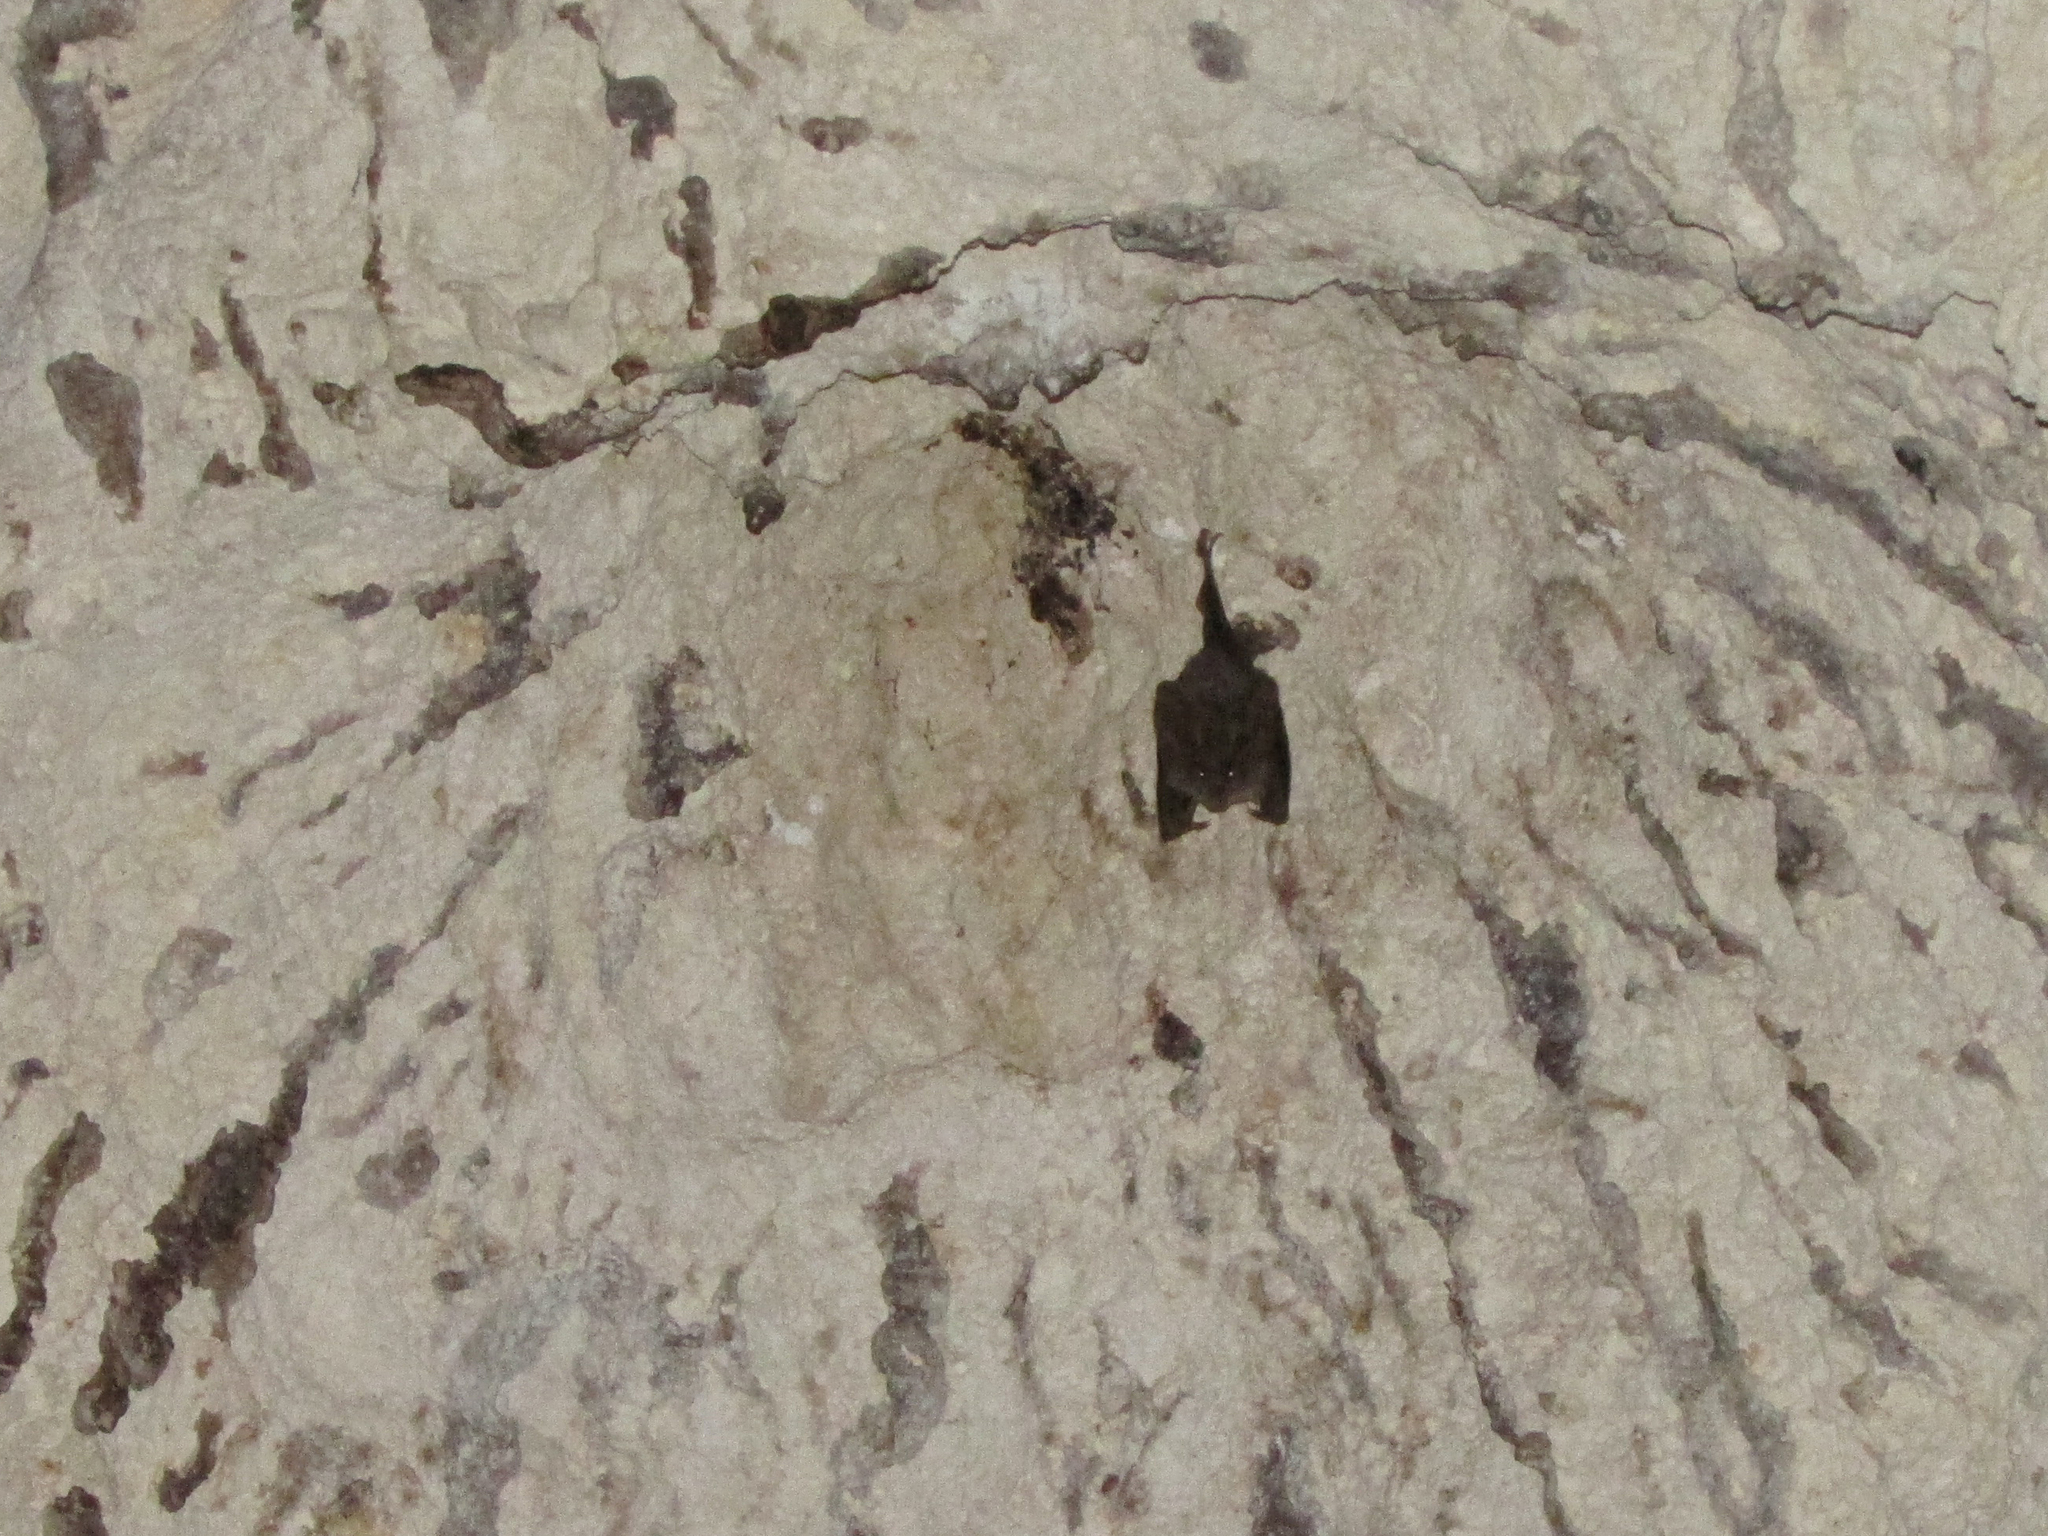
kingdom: Animalia
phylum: Chordata
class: Mammalia
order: Chiroptera
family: Megadermatidae
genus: Megaderma
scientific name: Megaderma spasma
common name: Lesser false vampire bat
